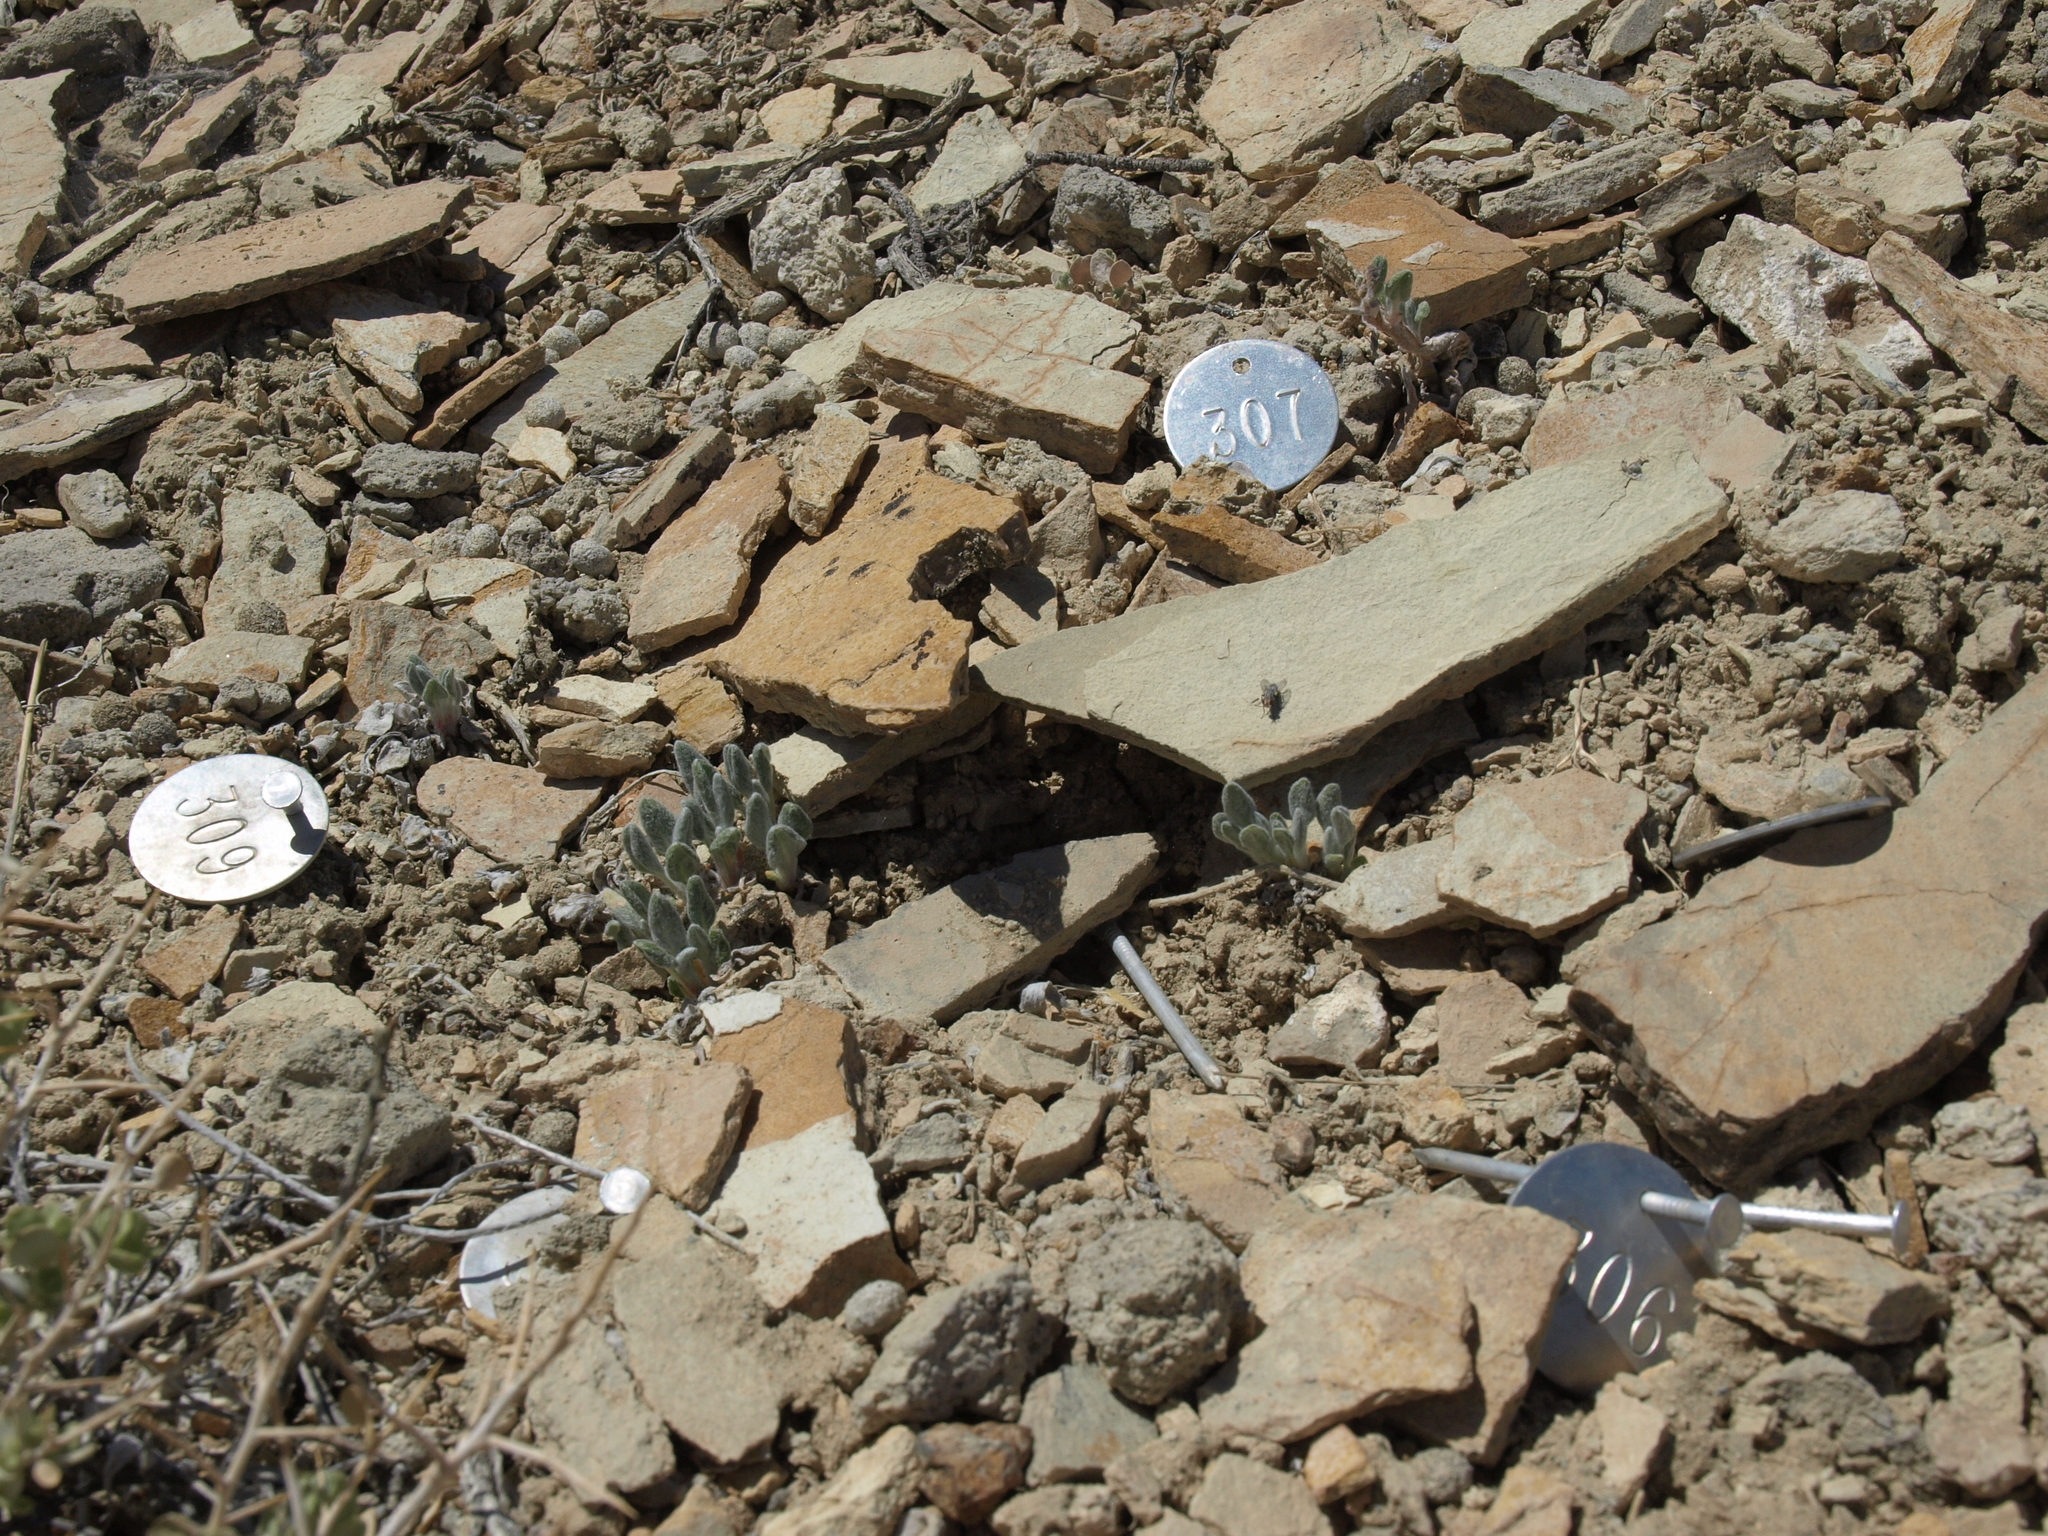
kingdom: Plantae
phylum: Tracheophyta
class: Magnoliopsida
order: Caryophyllales
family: Polygonaceae
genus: Eriogonum
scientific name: Eriogonum tiehmii
